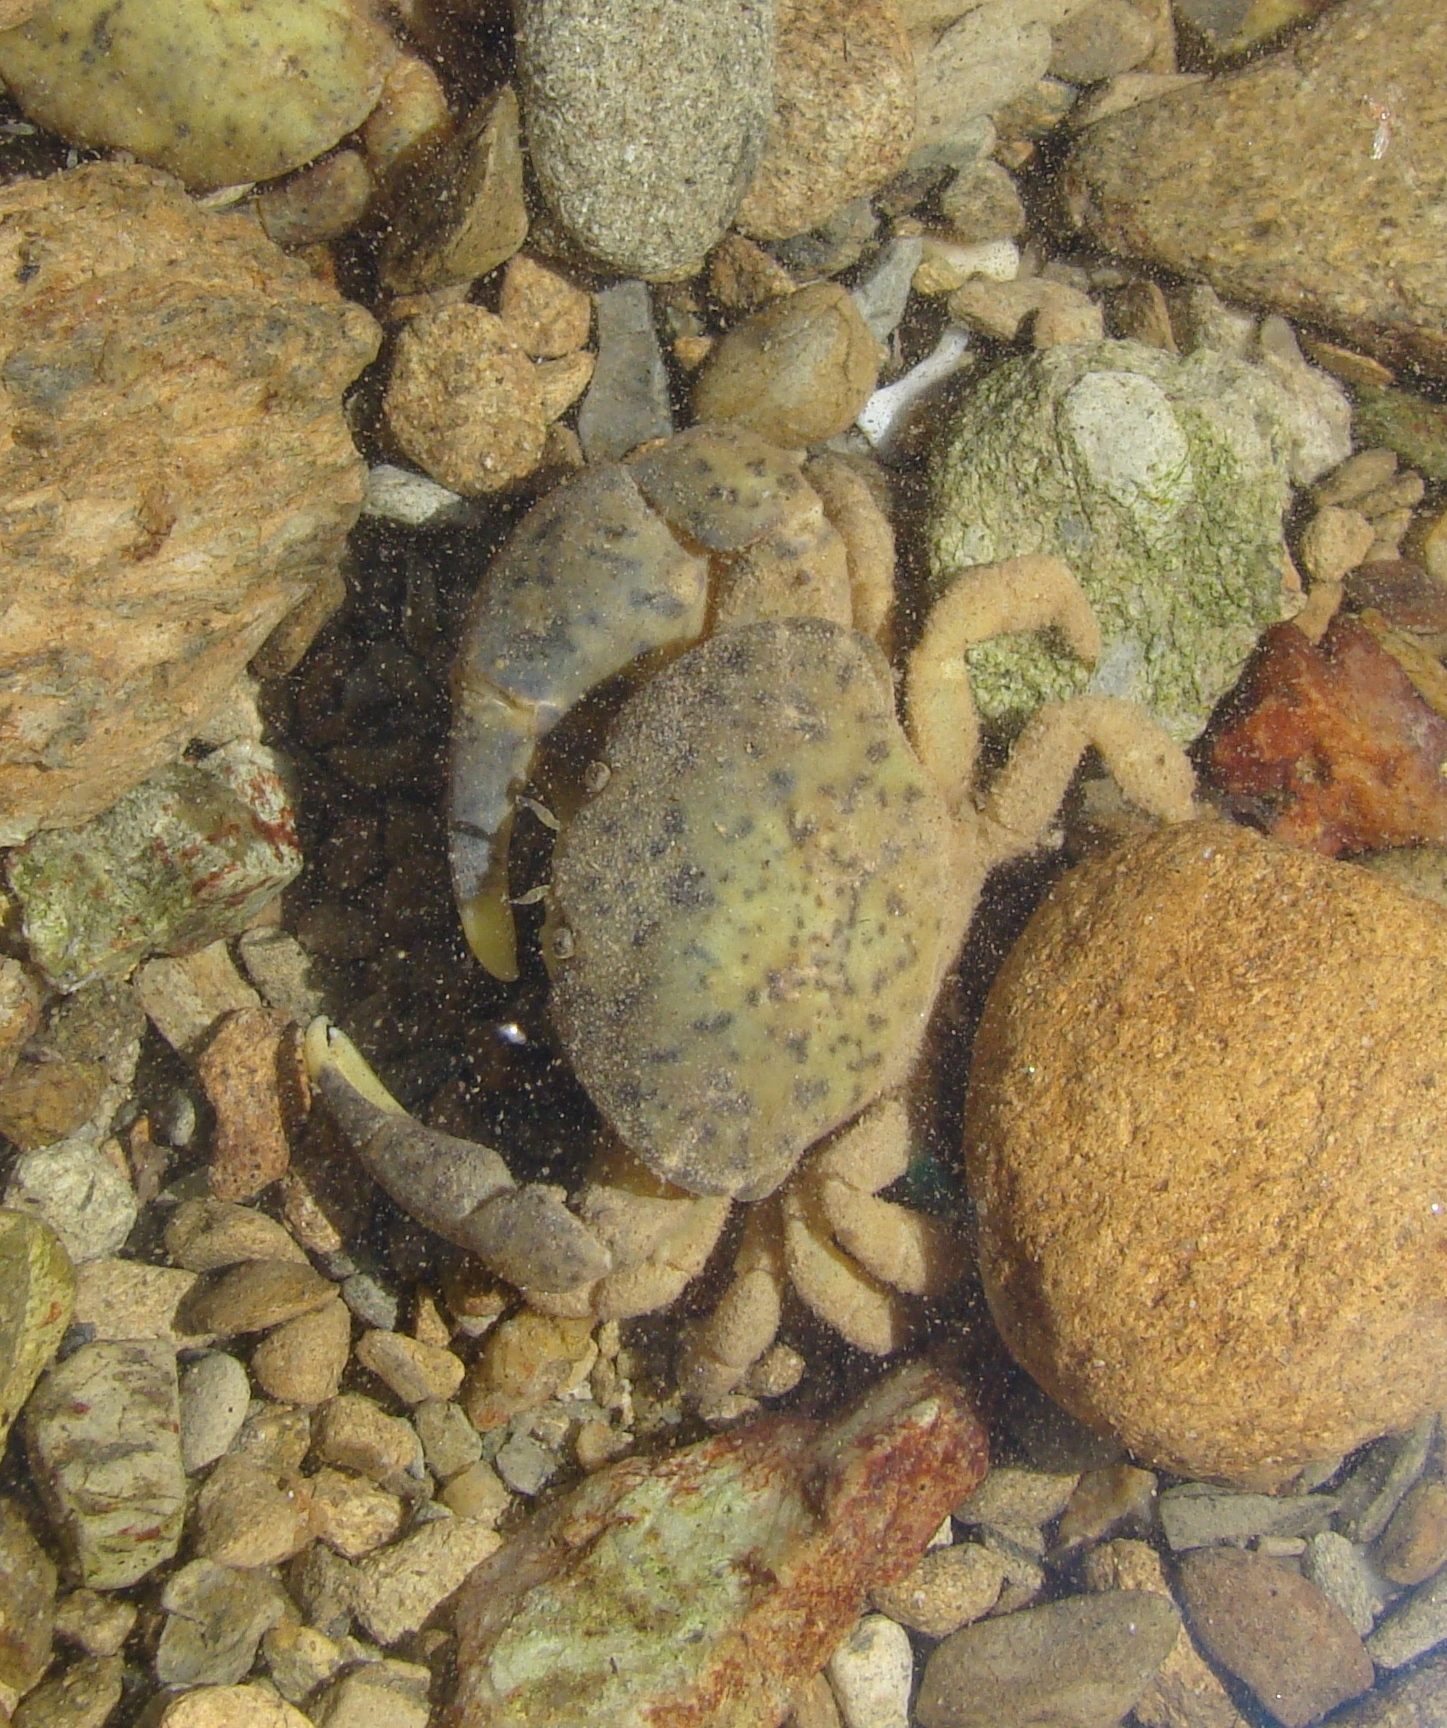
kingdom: Animalia
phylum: Arthropoda
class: Malacostraca
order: Decapoda
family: Heteroziidae
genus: Heterozius
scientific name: Heterozius rotundifrons
